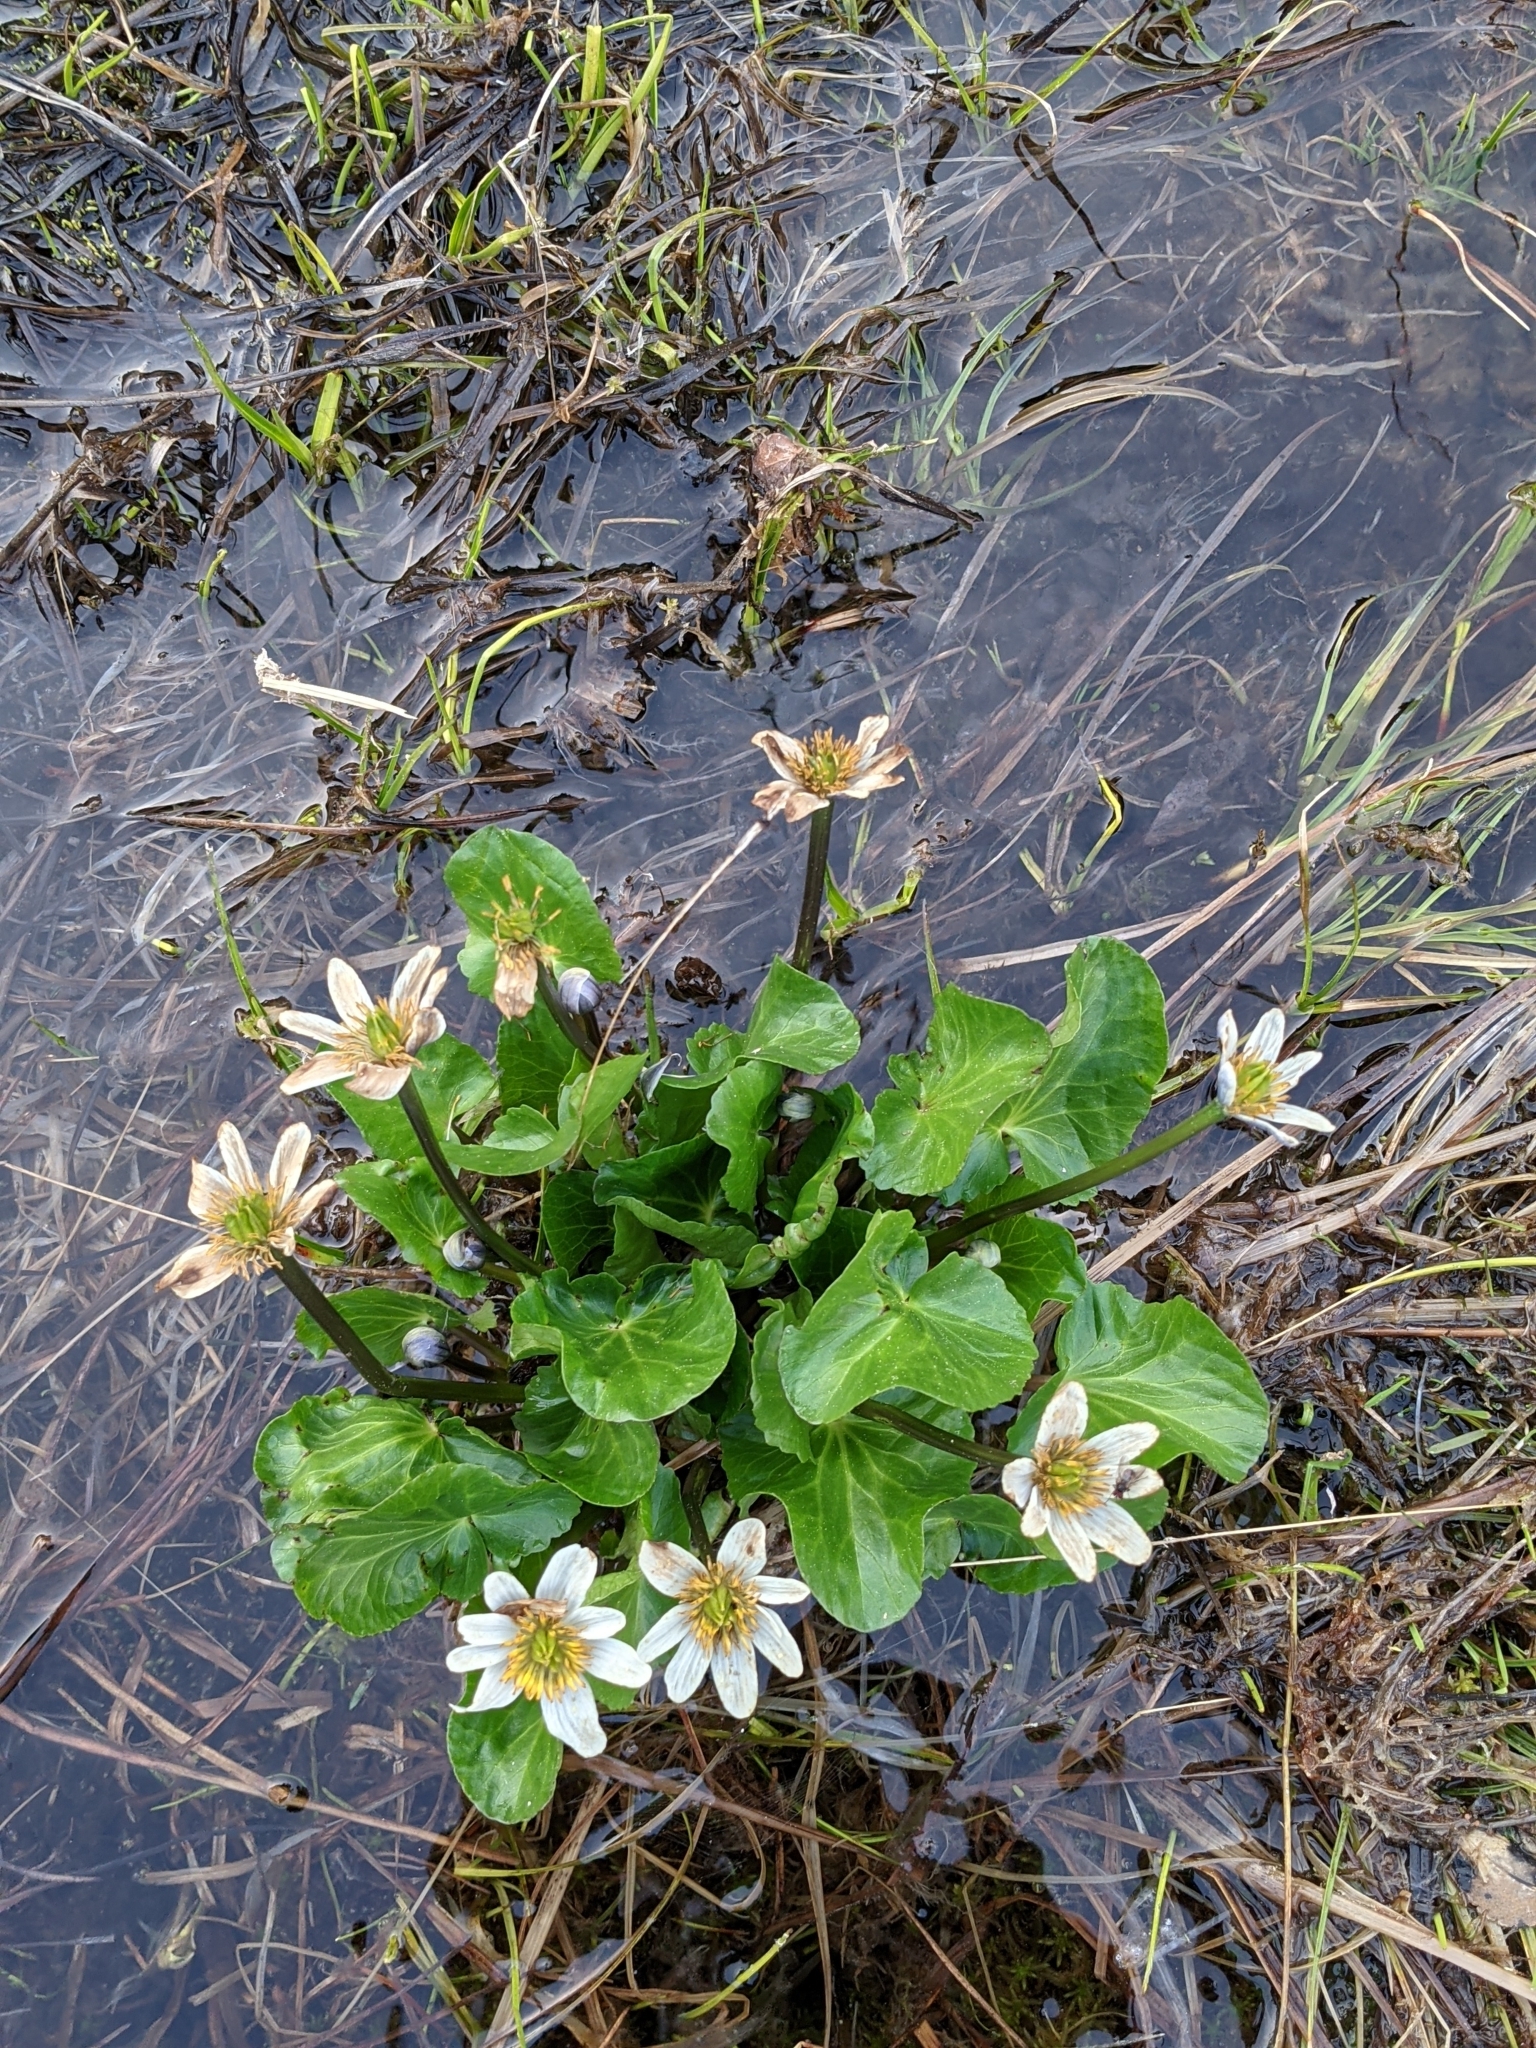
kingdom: Plantae
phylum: Tracheophyta
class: Magnoliopsida
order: Ranunculales
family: Ranunculaceae
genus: Caltha
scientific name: Caltha leptosepala
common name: Elkslip
